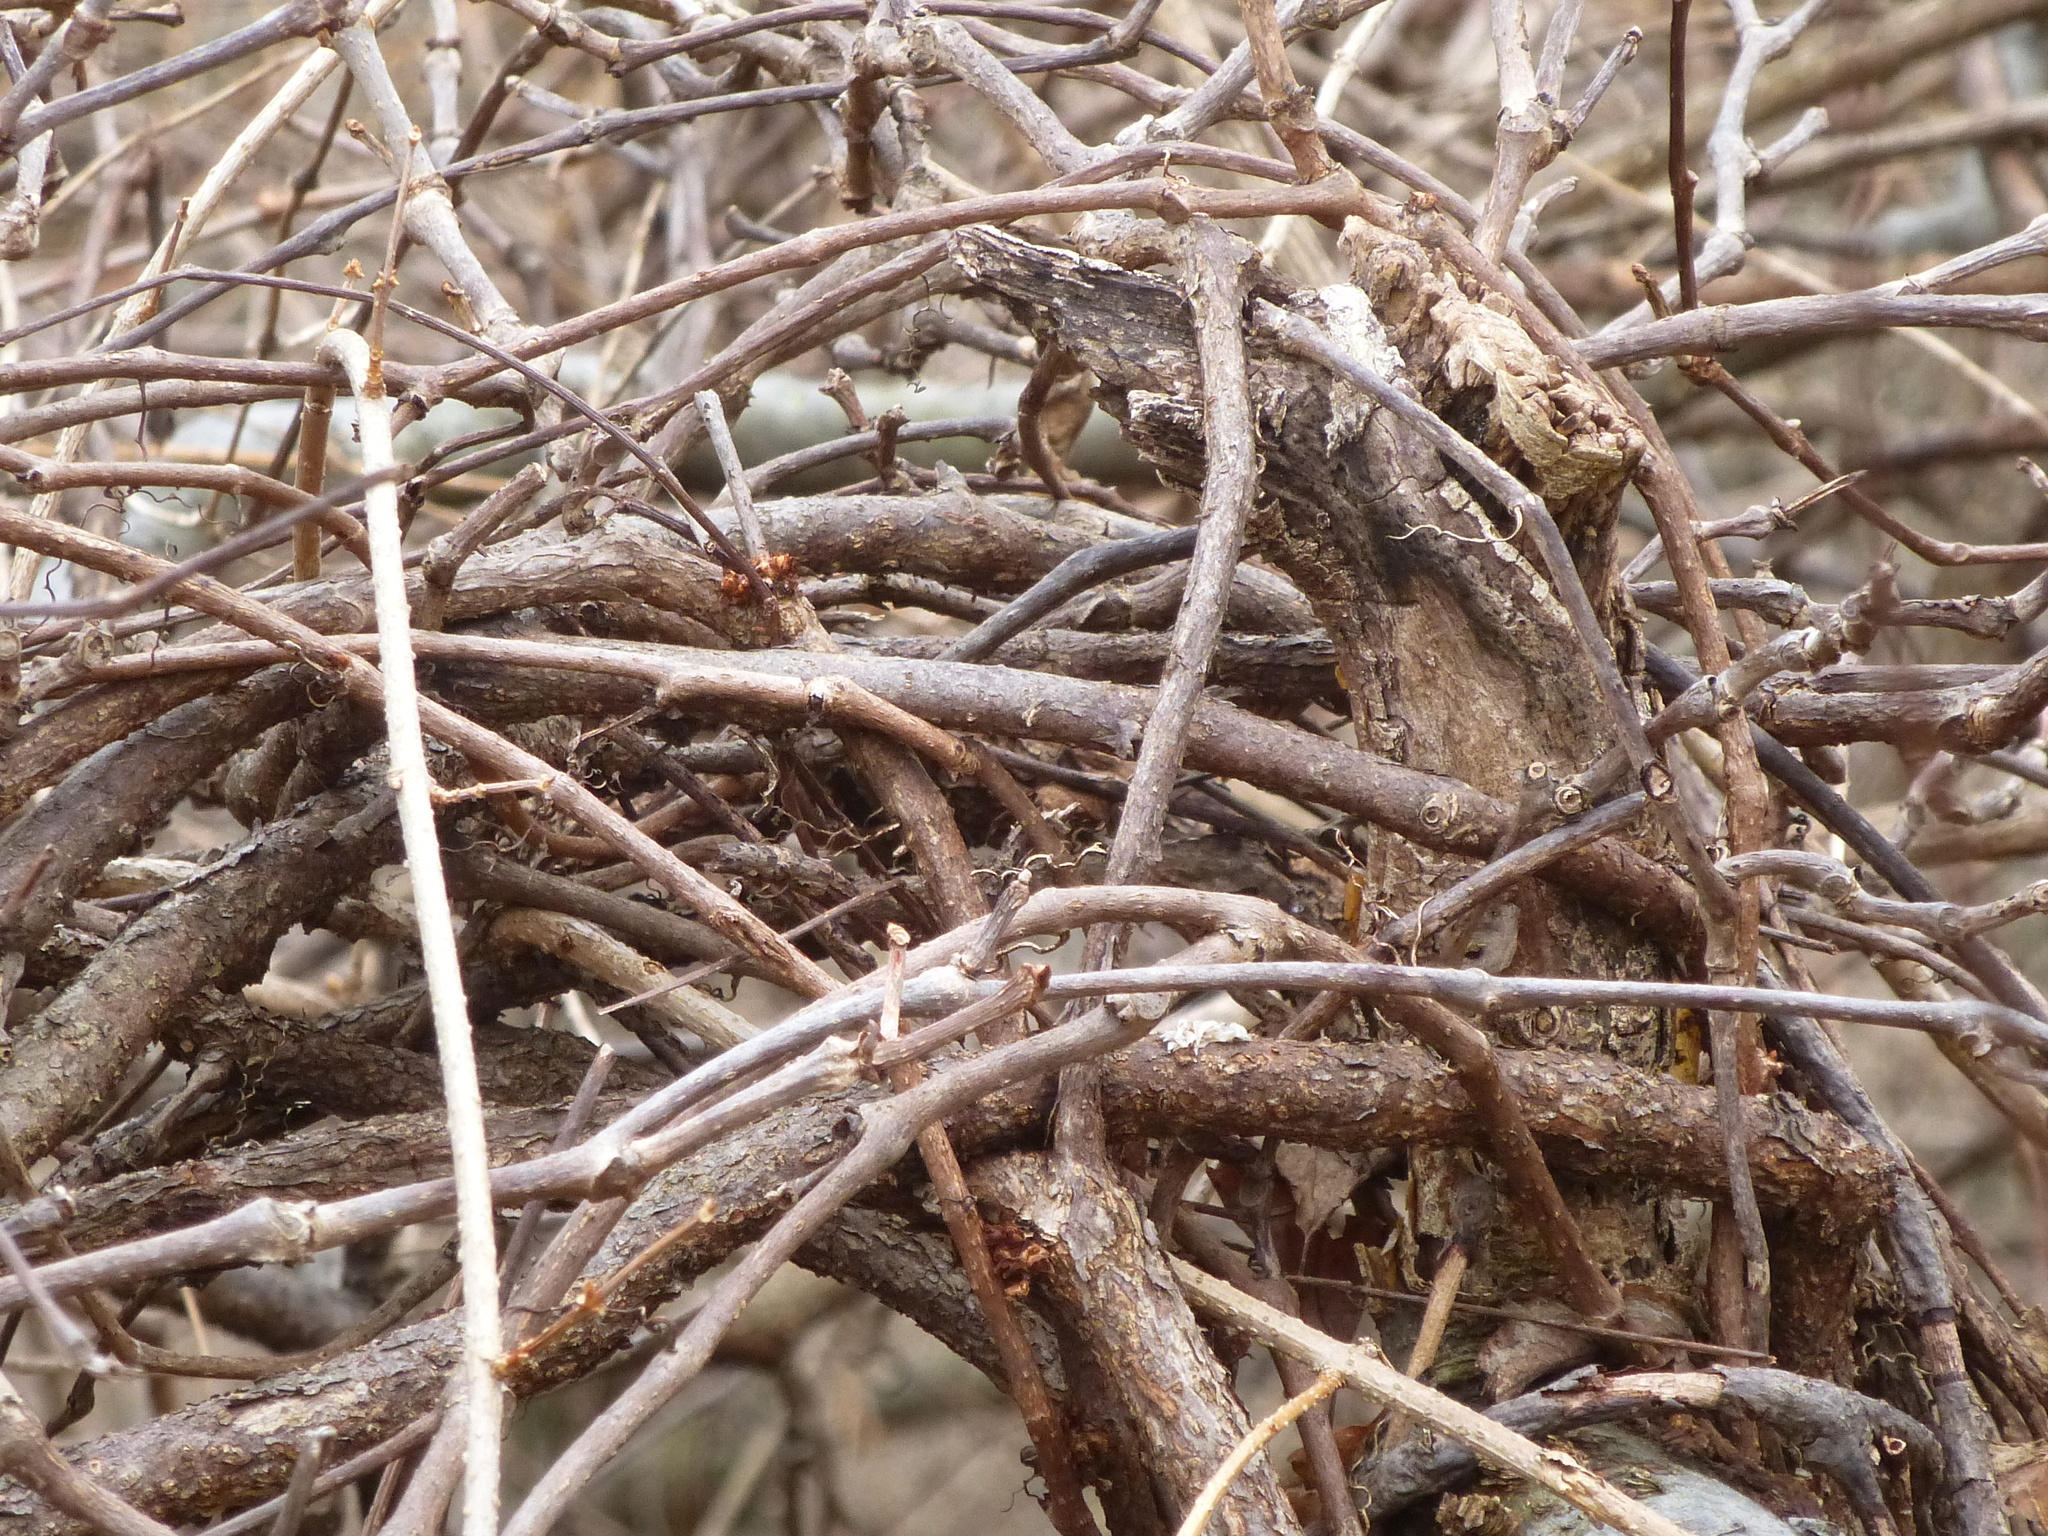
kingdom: Plantae
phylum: Tracheophyta
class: Magnoliopsida
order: Celastrales
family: Celastraceae
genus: Celastrus
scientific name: Celastrus orbiculatus
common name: Oriental bittersweet
